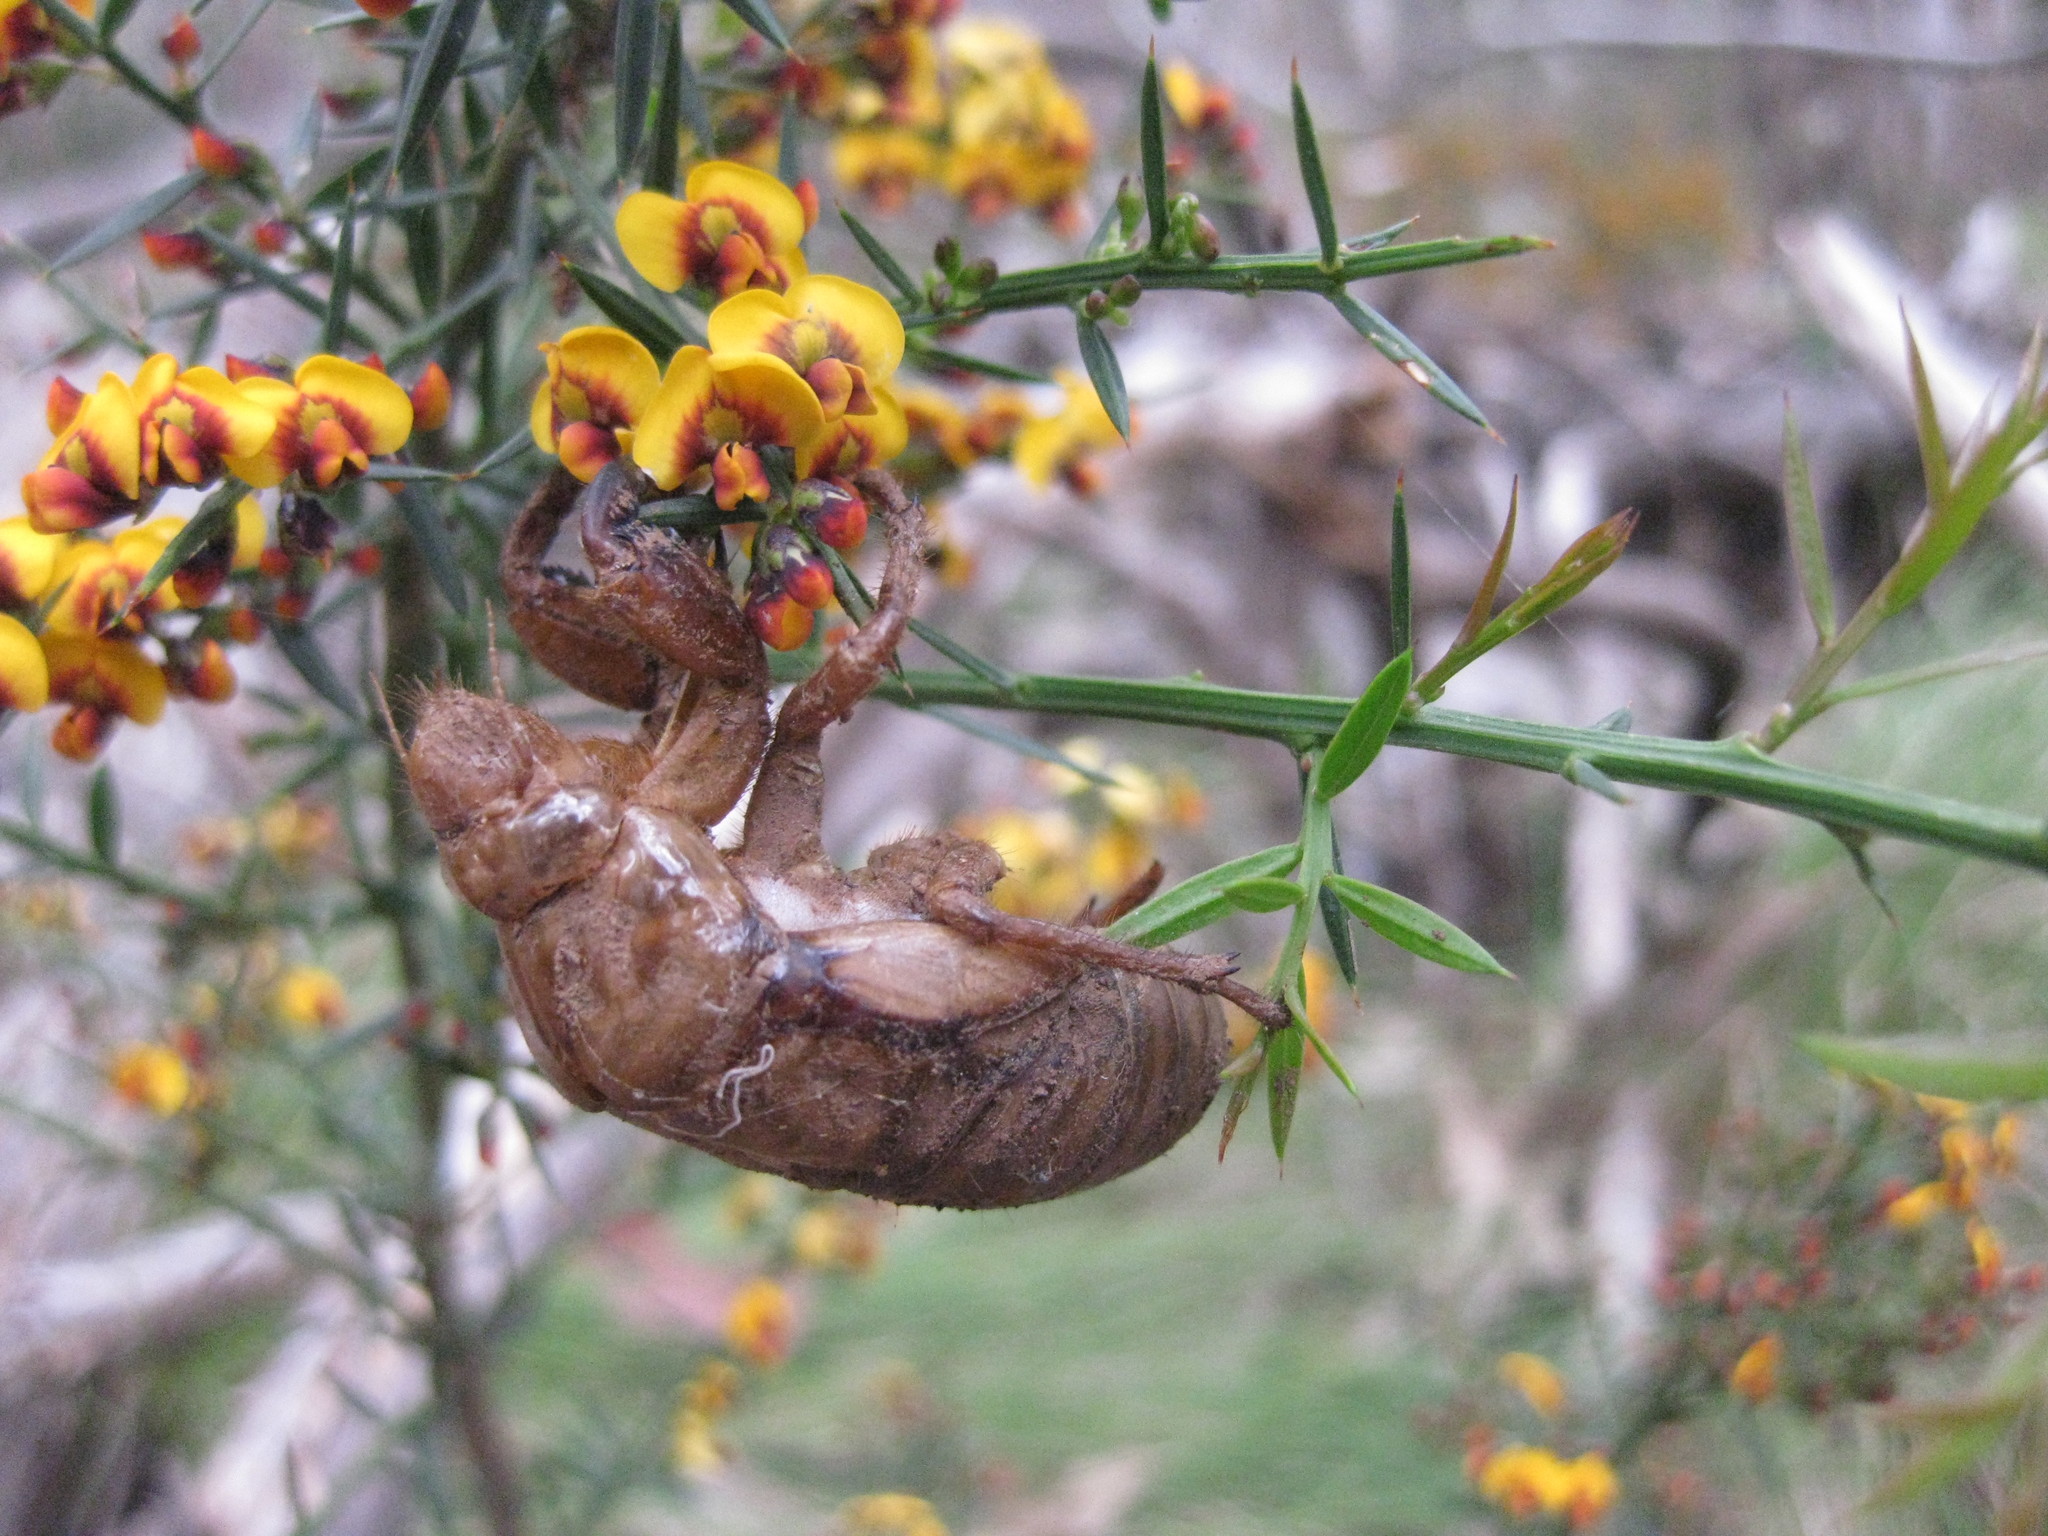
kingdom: Plantae
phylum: Tracheophyta
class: Magnoliopsida
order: Fabales
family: Fabaceae
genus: Daviesia
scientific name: Daviesia ulicifolia
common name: Gorse bitter-pea
